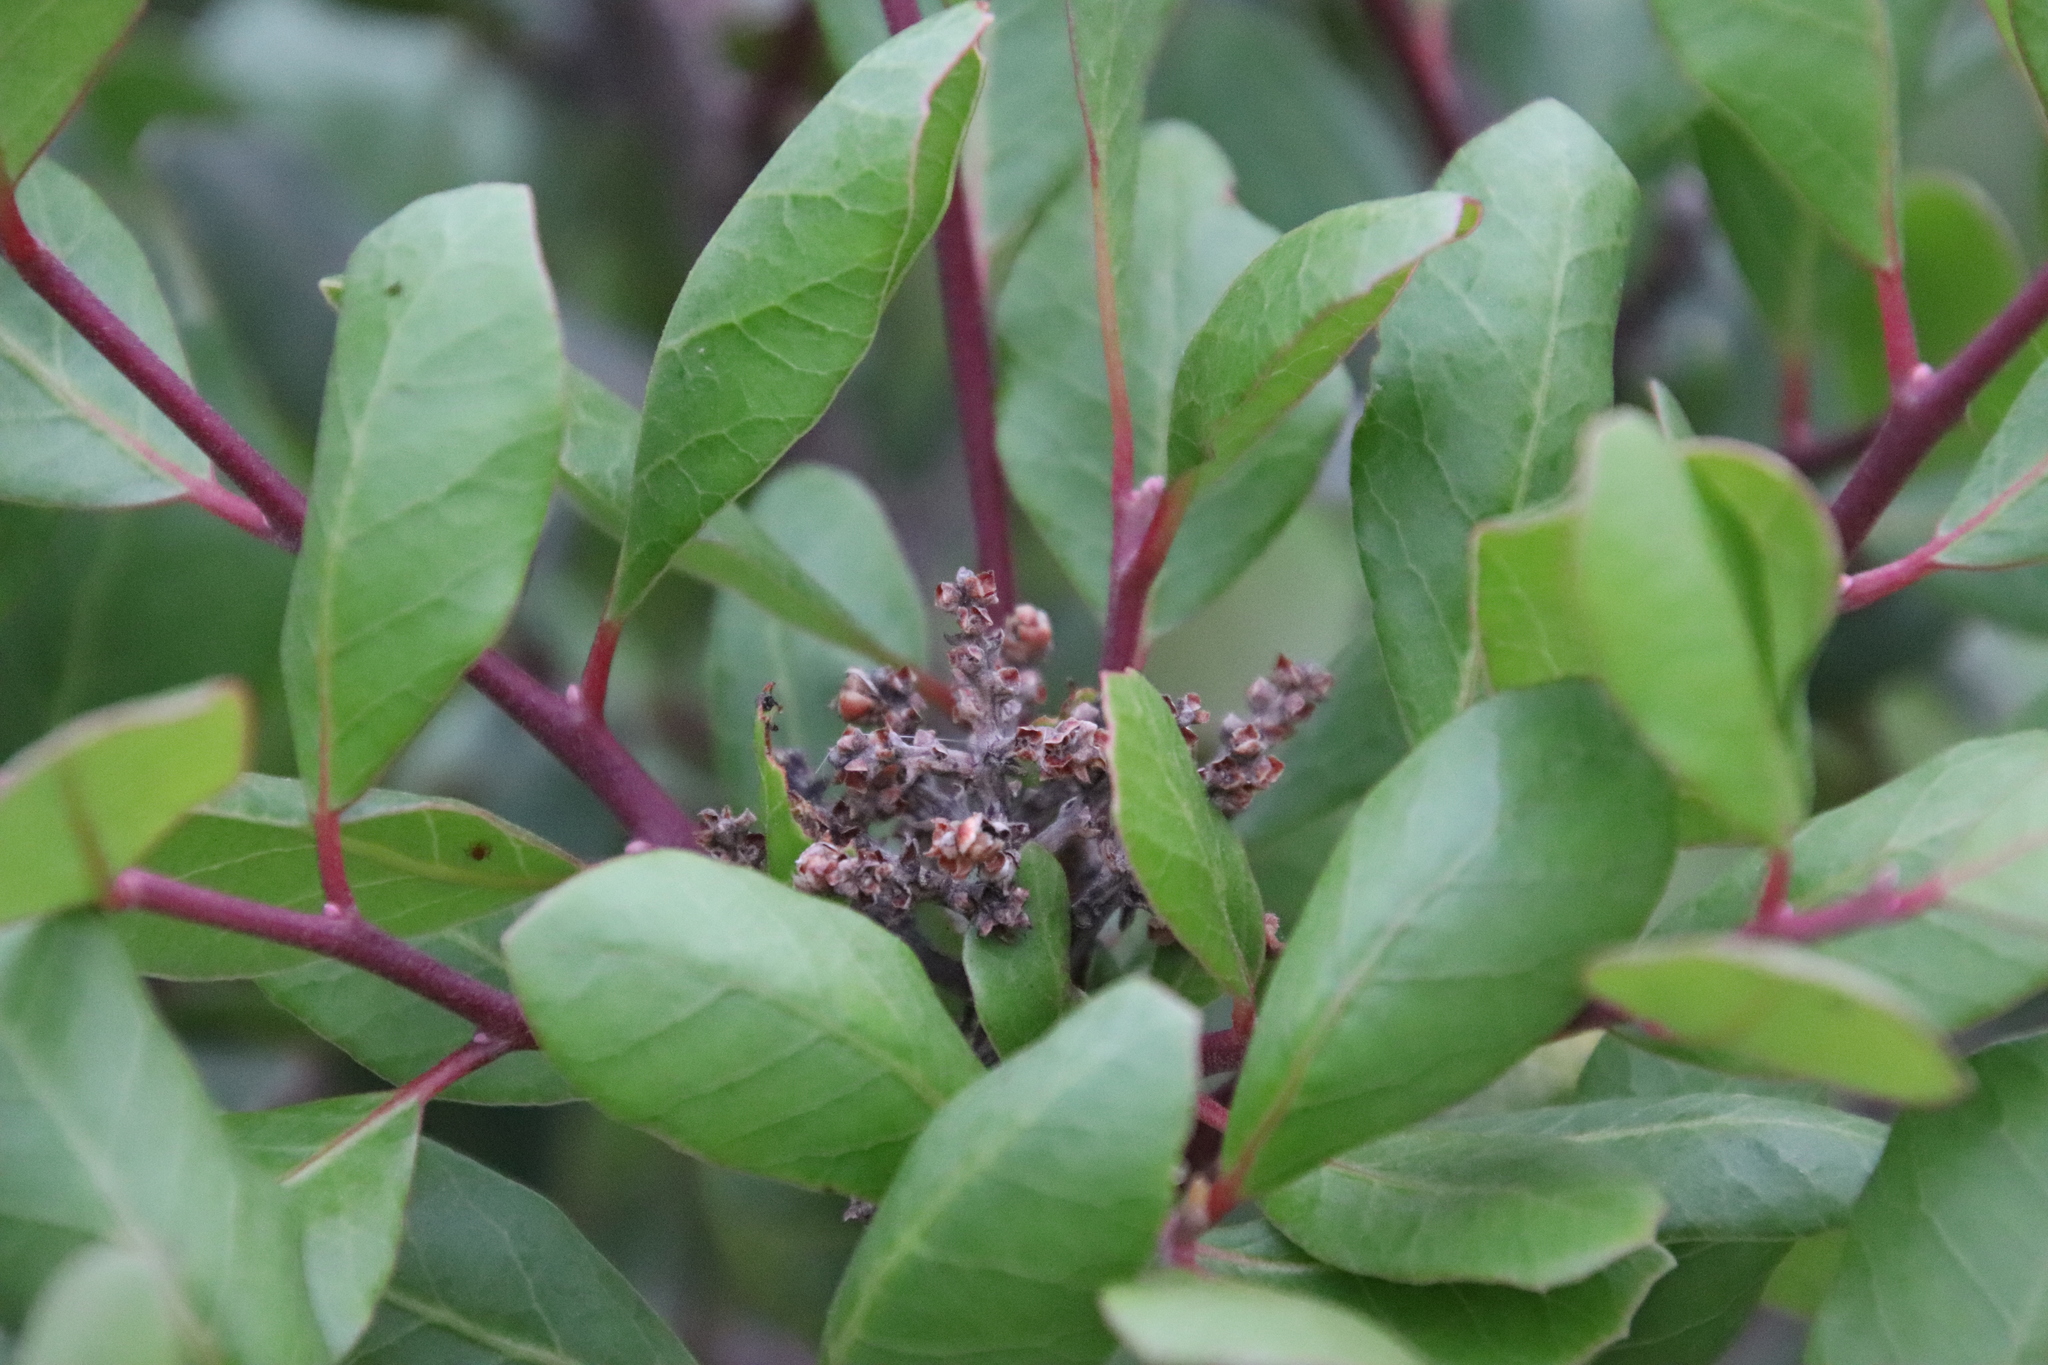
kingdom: Plantae
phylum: Tracheophyta
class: Magnoliopsida
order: Sapindales
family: Anacardiaceae
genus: Rhus
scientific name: Rhus integrifolia
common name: Lemonade sumac
